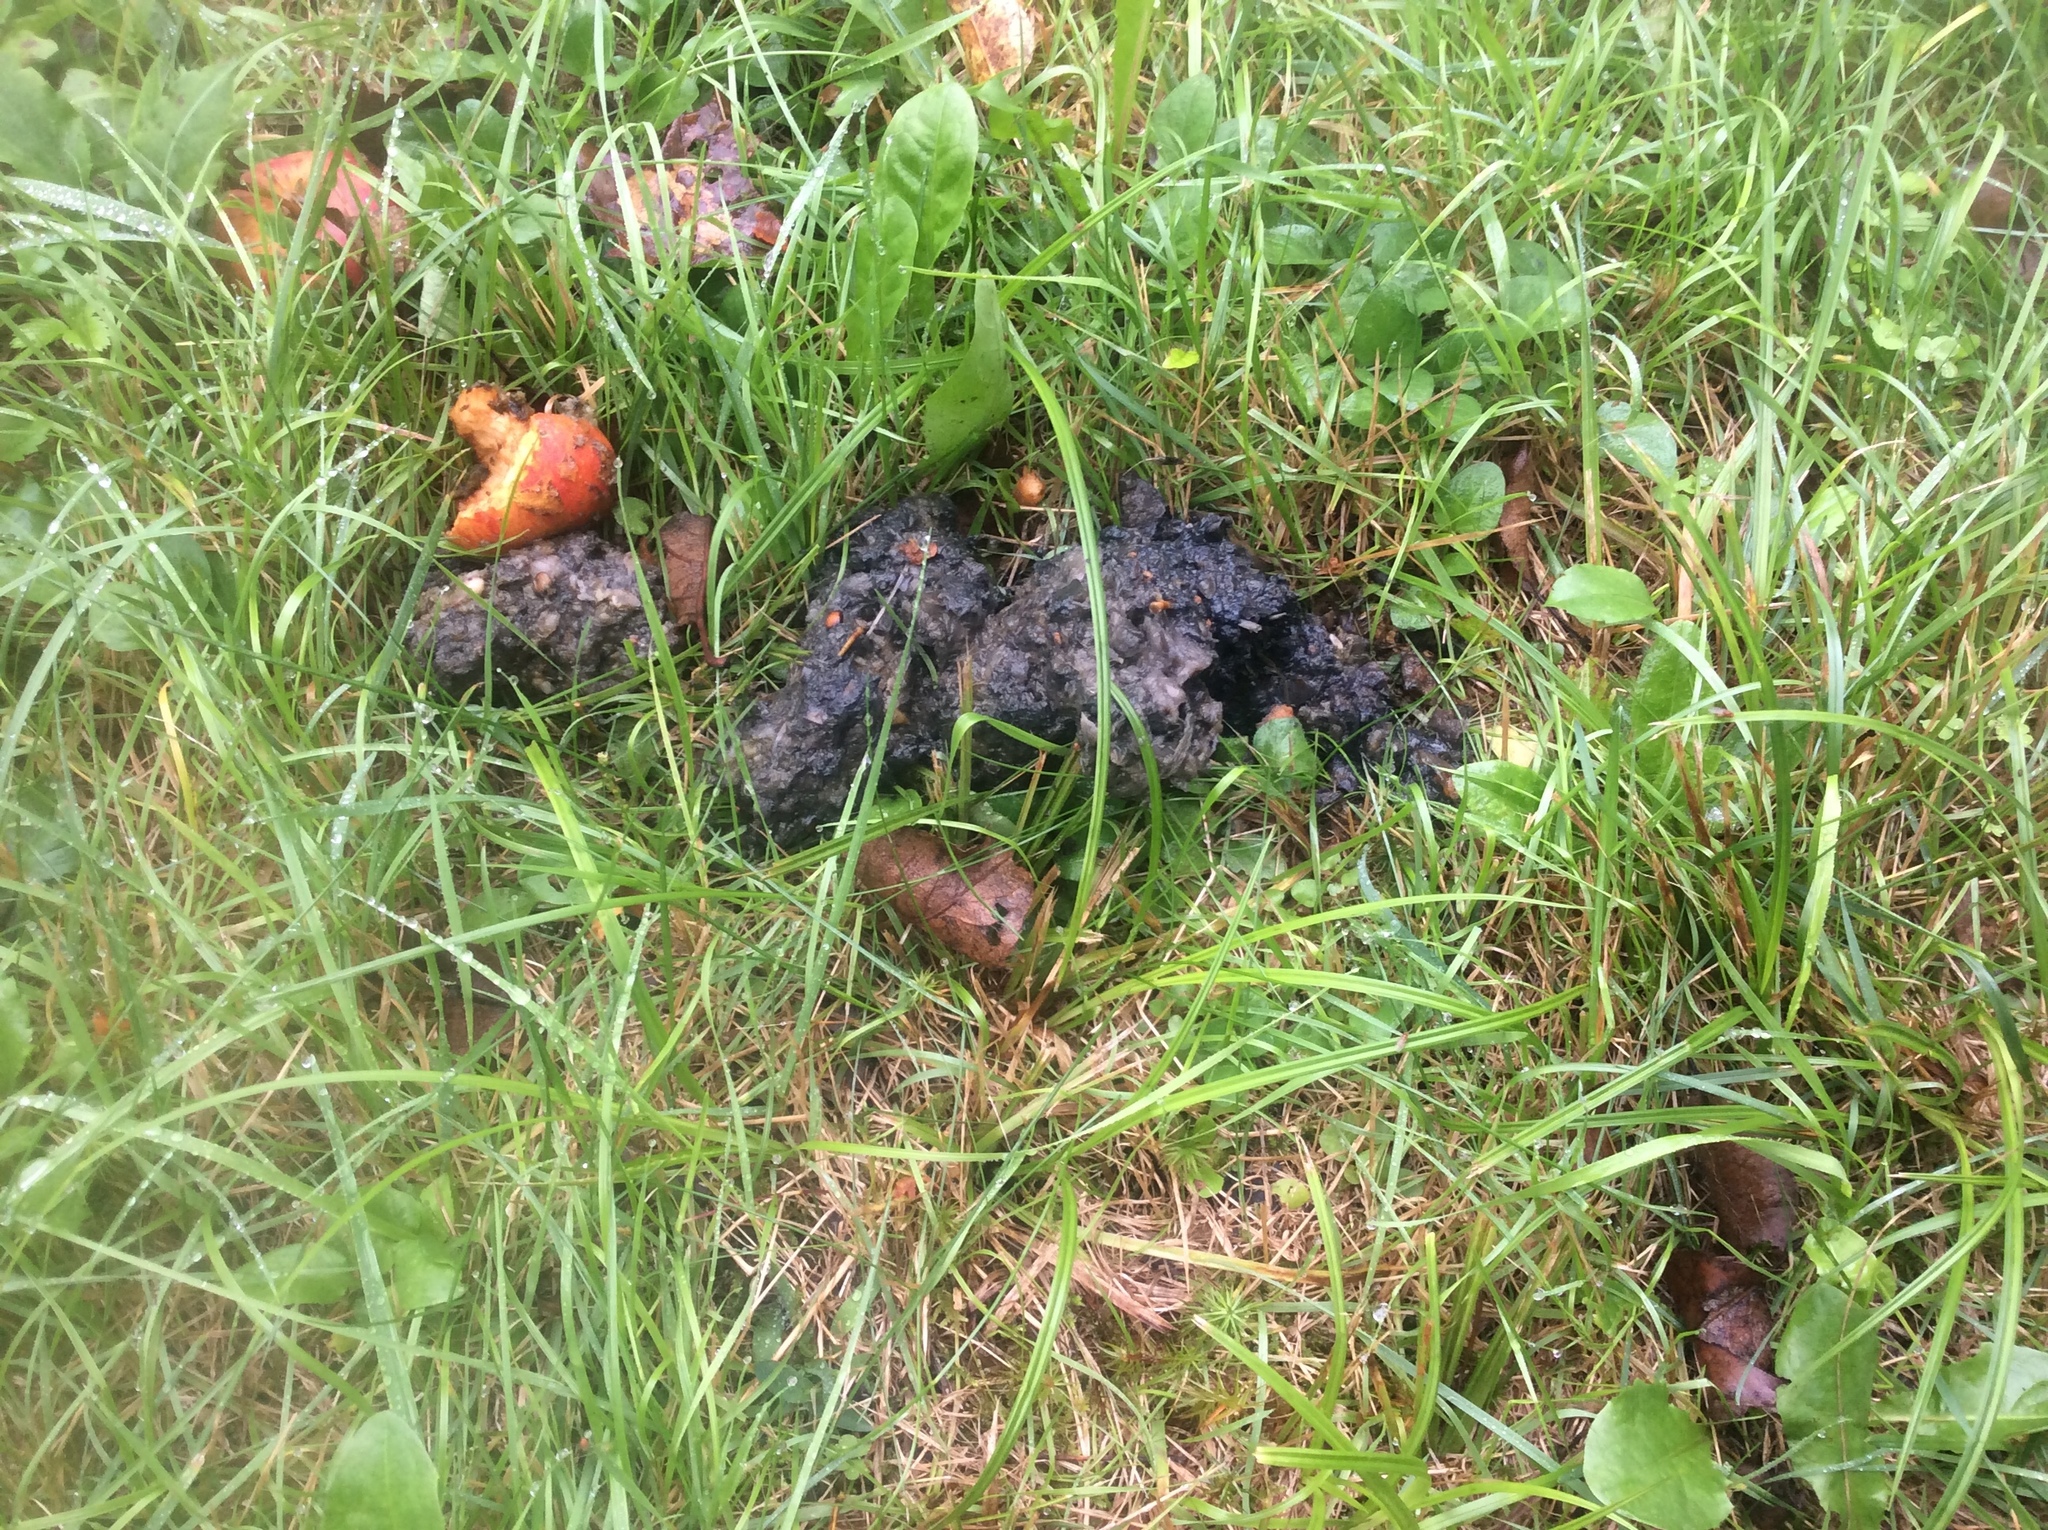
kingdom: Animalia
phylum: Chordata
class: Mammalia
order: Carnivora
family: Ursidae
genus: Ursus
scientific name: Ursus americanus
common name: American black bear
